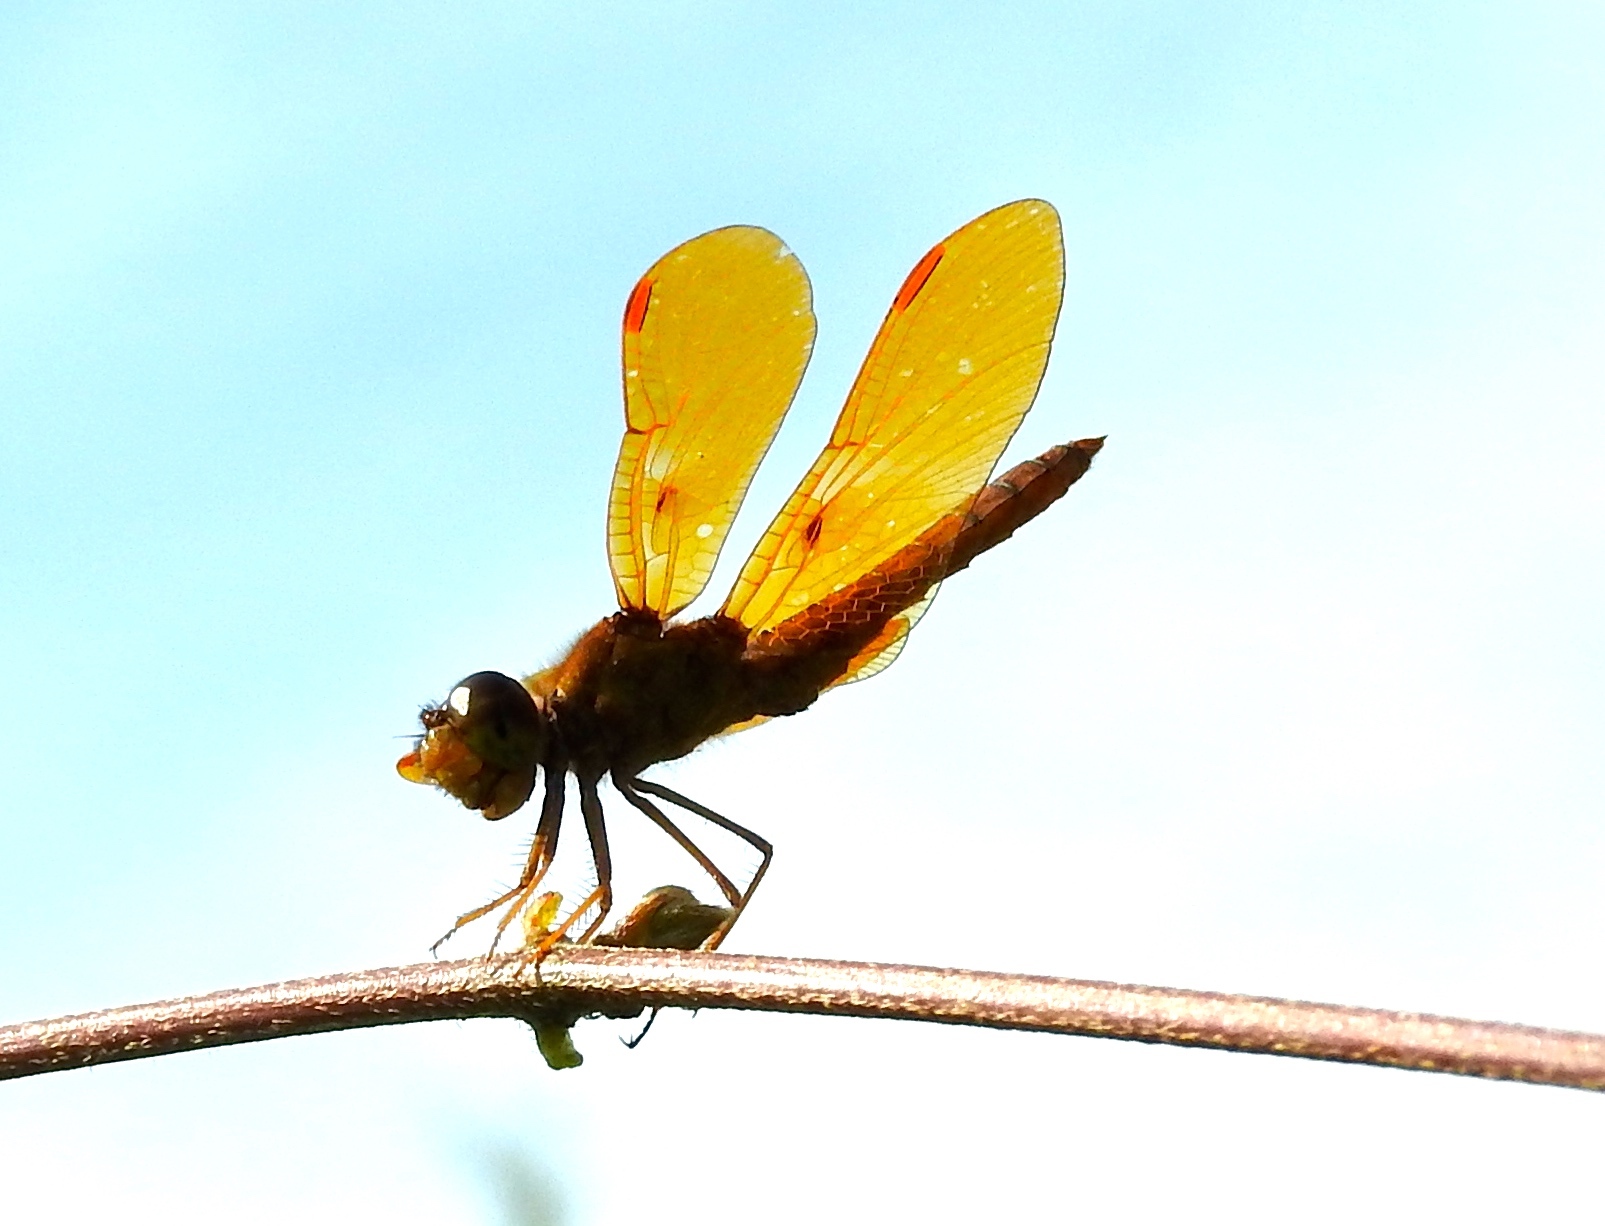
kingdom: Animalia
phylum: Arthropoda
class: Insecta
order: Odonata
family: Libellulidae
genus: Perithemis
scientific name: Perithemis intensa
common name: Mexican amberwing
